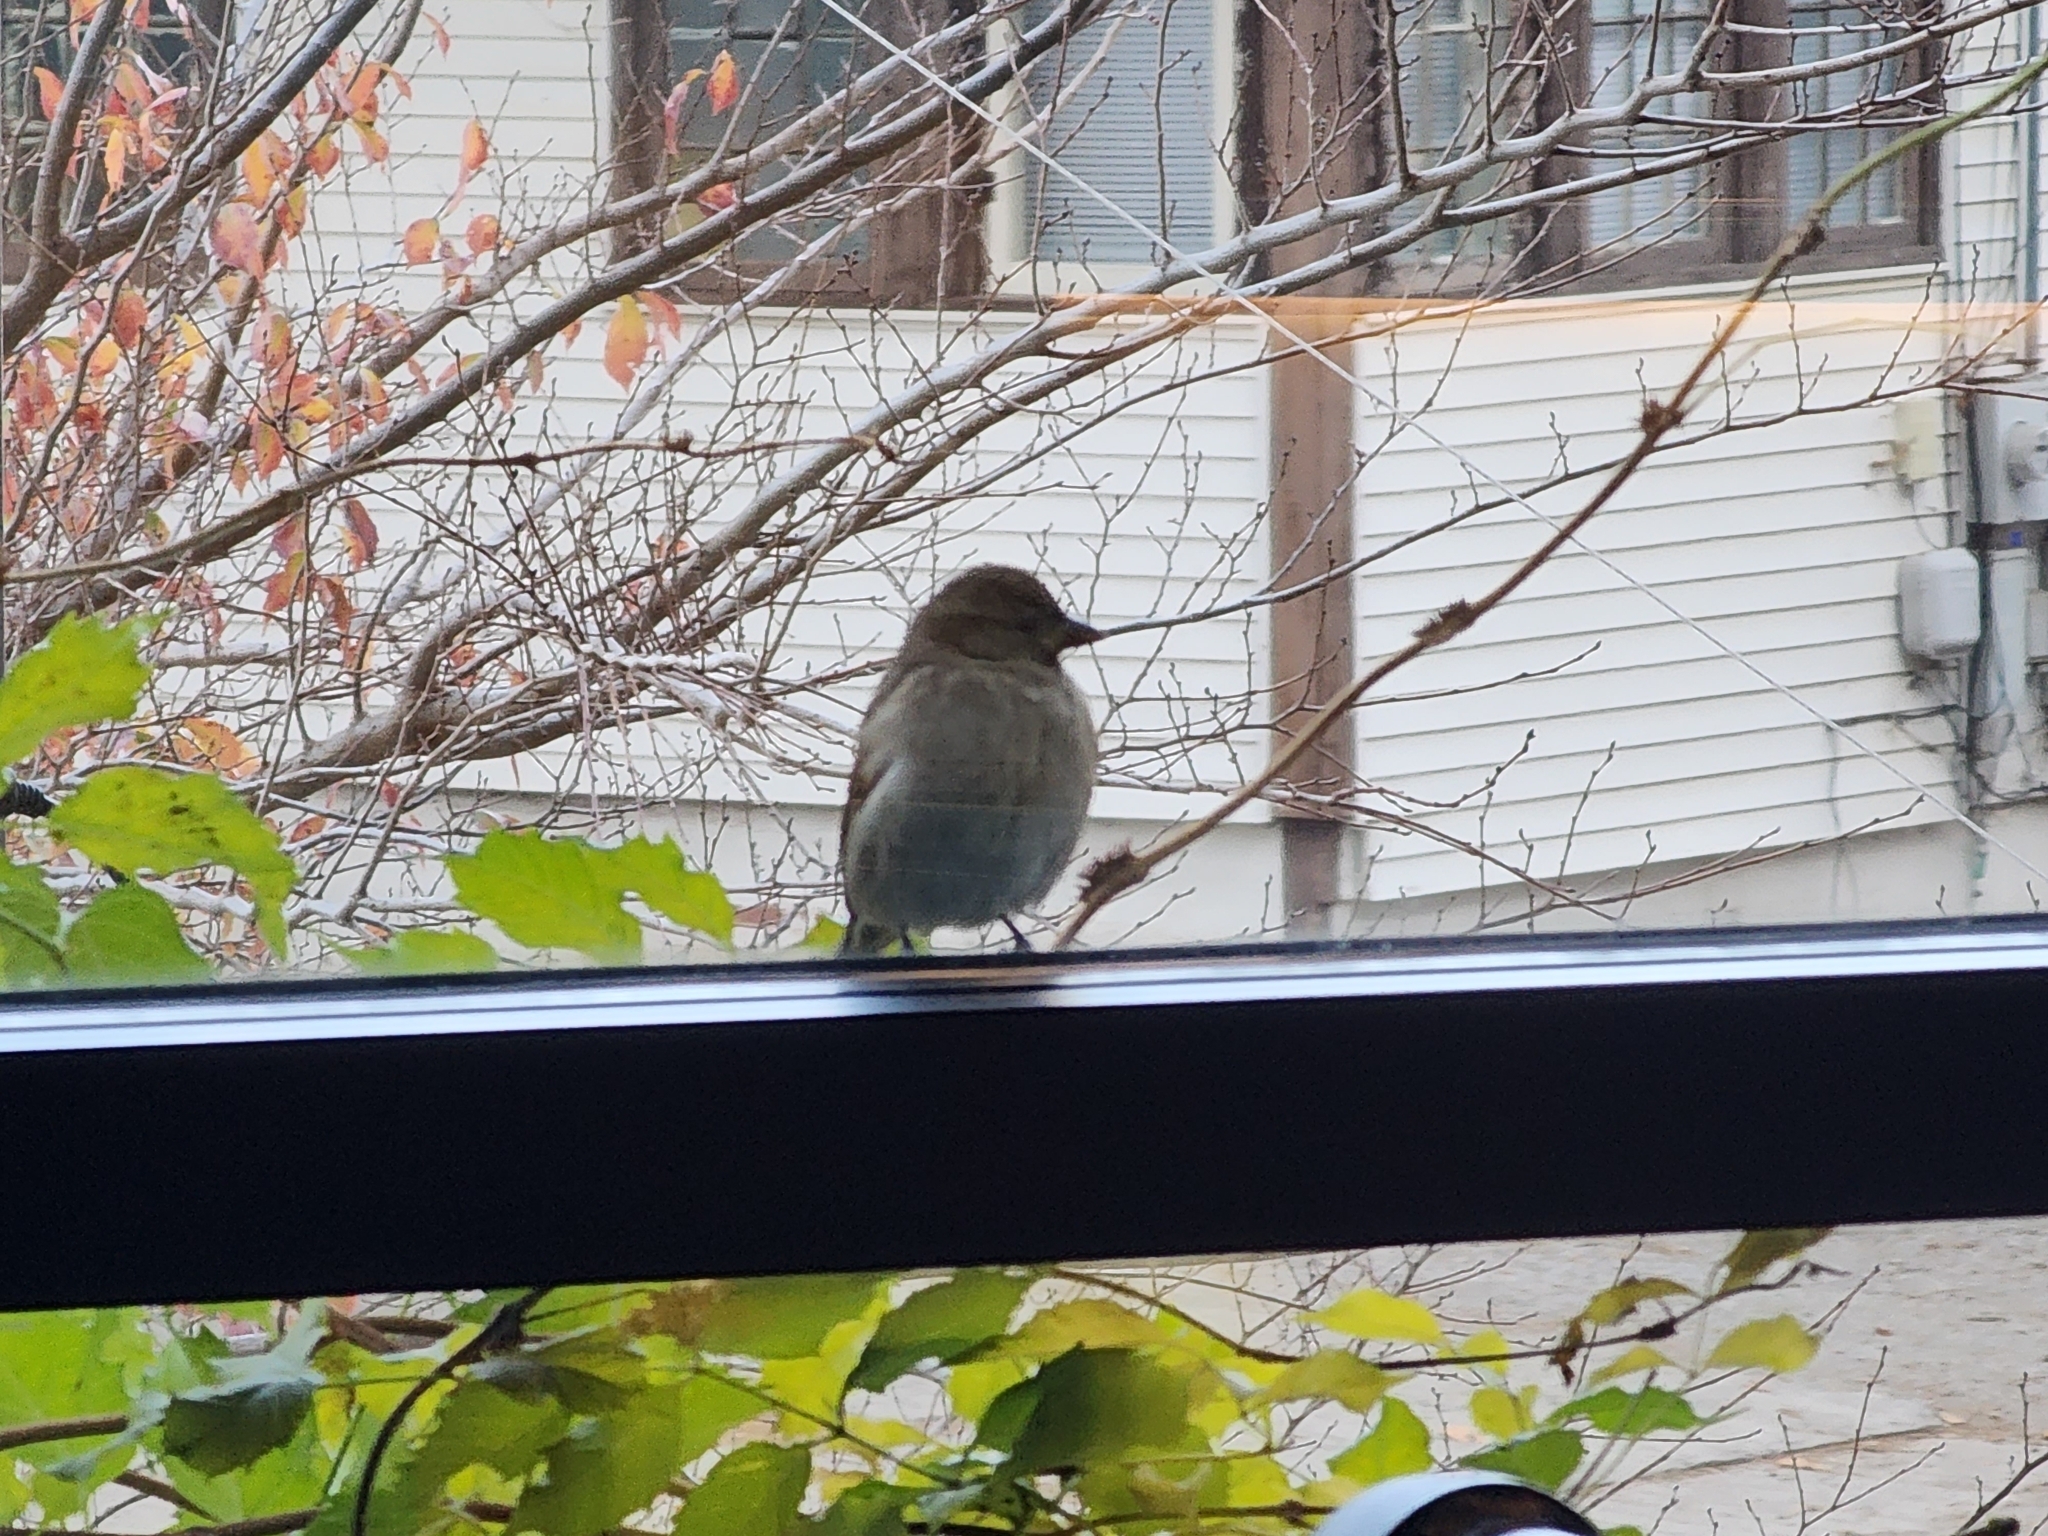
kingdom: Animalia
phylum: Chordata
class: Aves
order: Passeriformes
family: Passeridae
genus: Passer
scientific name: Passer domesticus
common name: House sparrow
